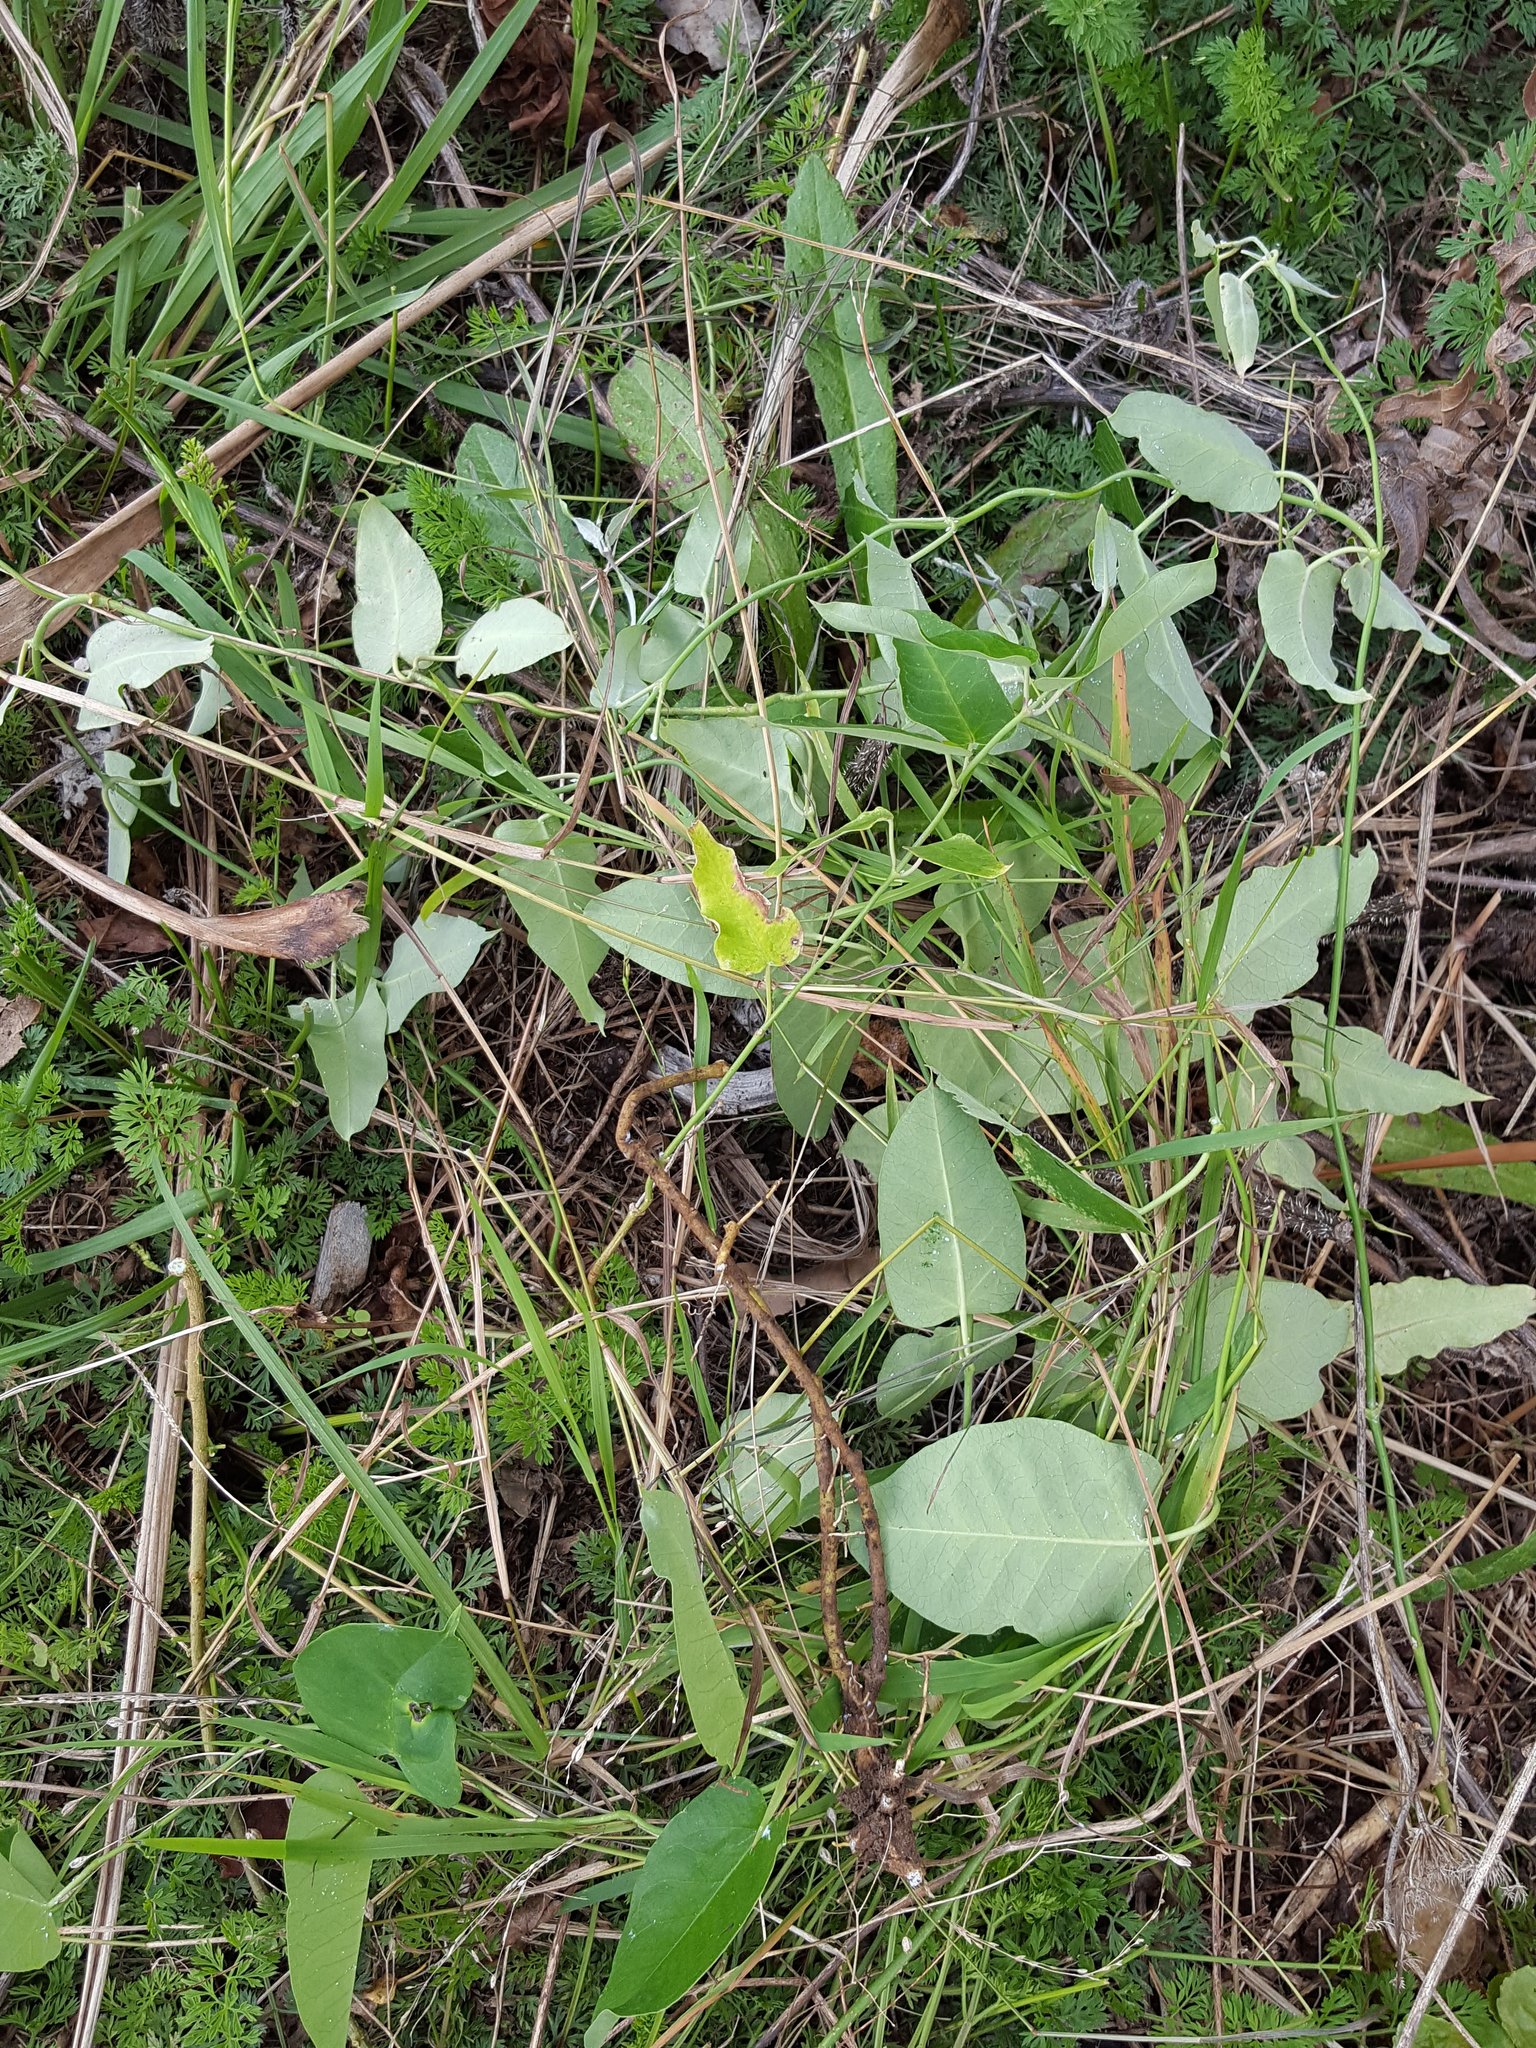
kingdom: Plantae
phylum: Tracheophyta
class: Magnoliopsida
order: Gentianales
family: Apocynaceae
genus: Araujia
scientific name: Araujia sericifera
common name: White bladderflower
